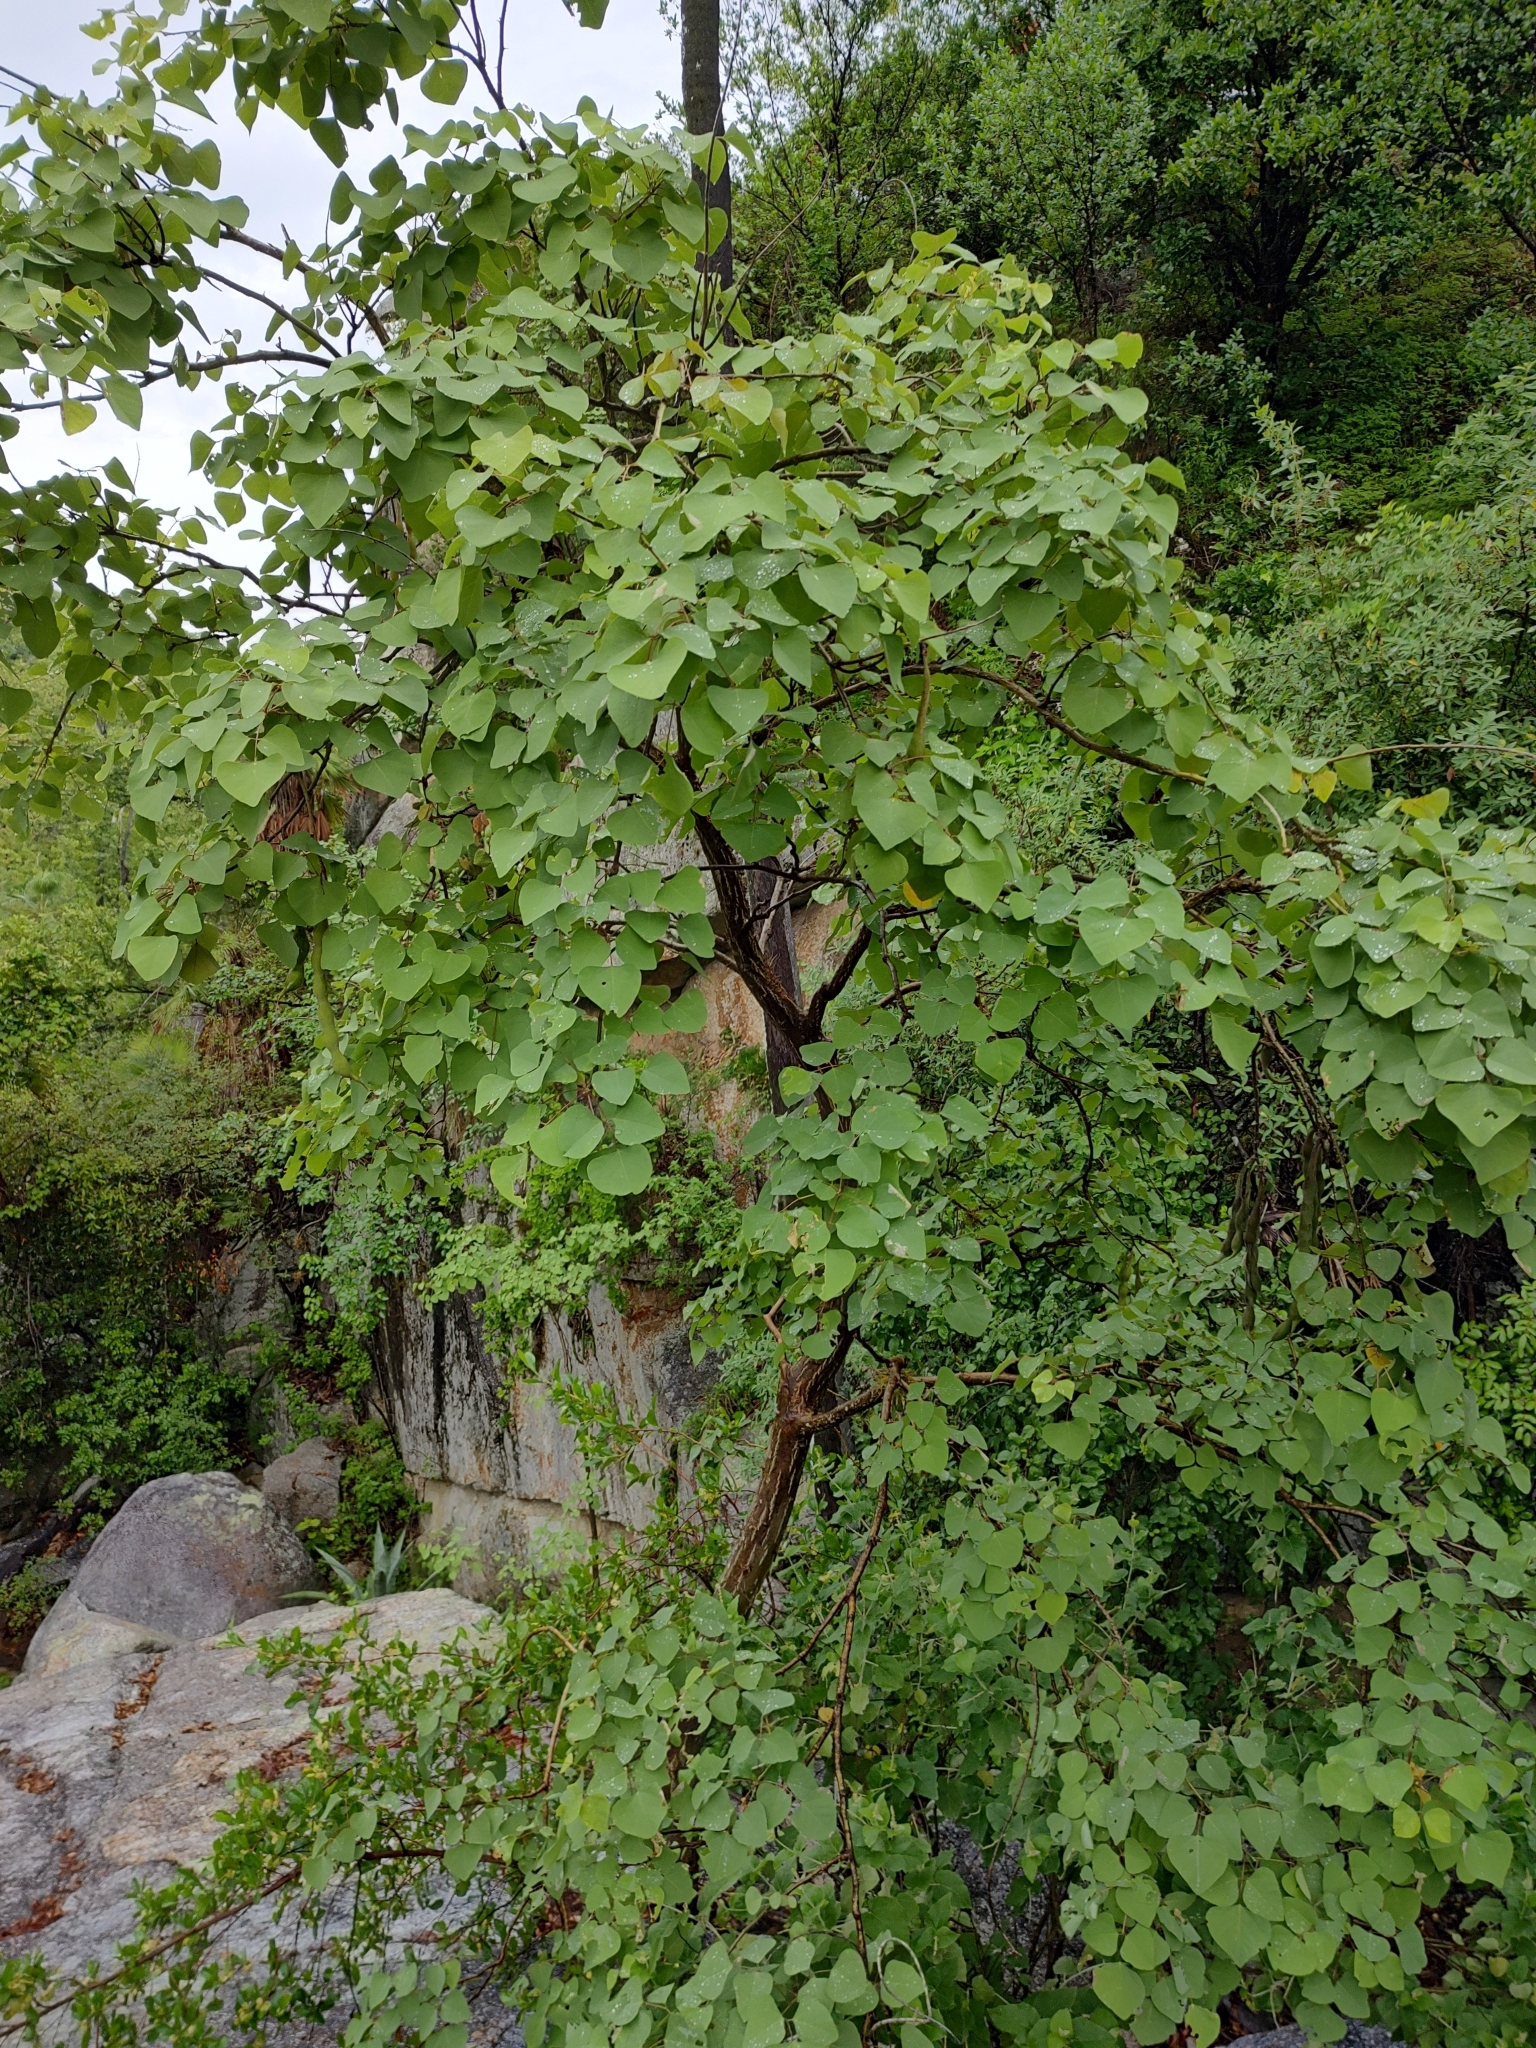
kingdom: Plantae
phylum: Tracheophyta
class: Magnoliopsida
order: Fabales
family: Fabaceae
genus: Erythrina
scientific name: Erythrina flabelliformis
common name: Chilicote
